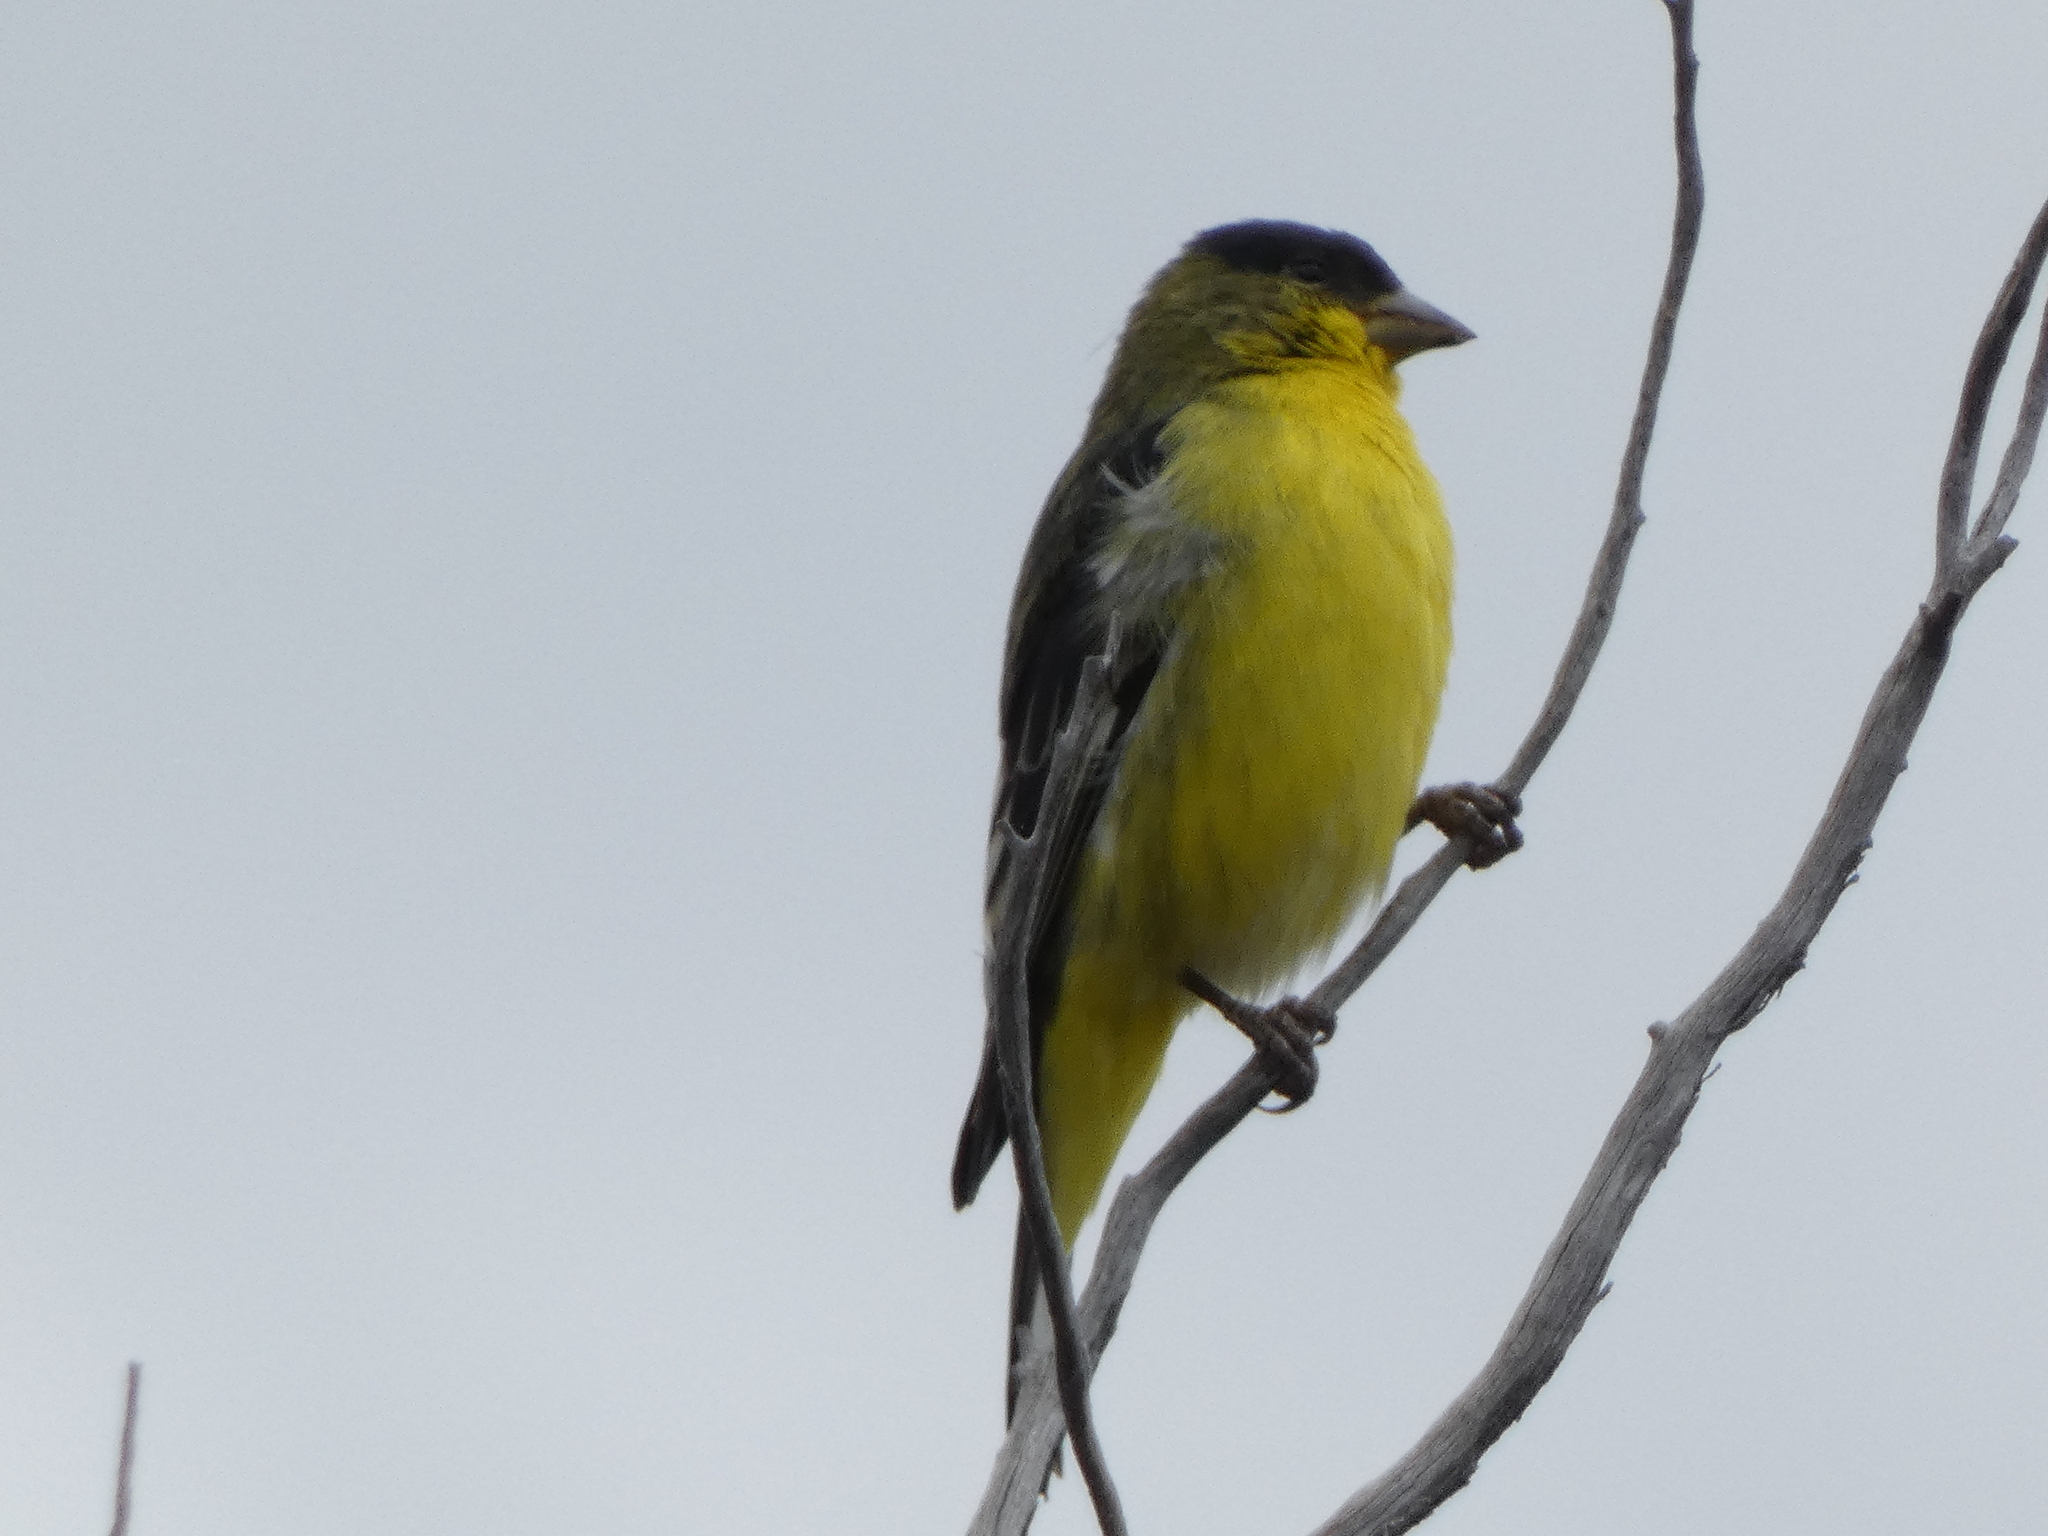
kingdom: Animalia
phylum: Chordata
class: Aves
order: Passeriformes
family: Fringillidae
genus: Spinus
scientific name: Spinus psaltria
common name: Lesser goldfinch
